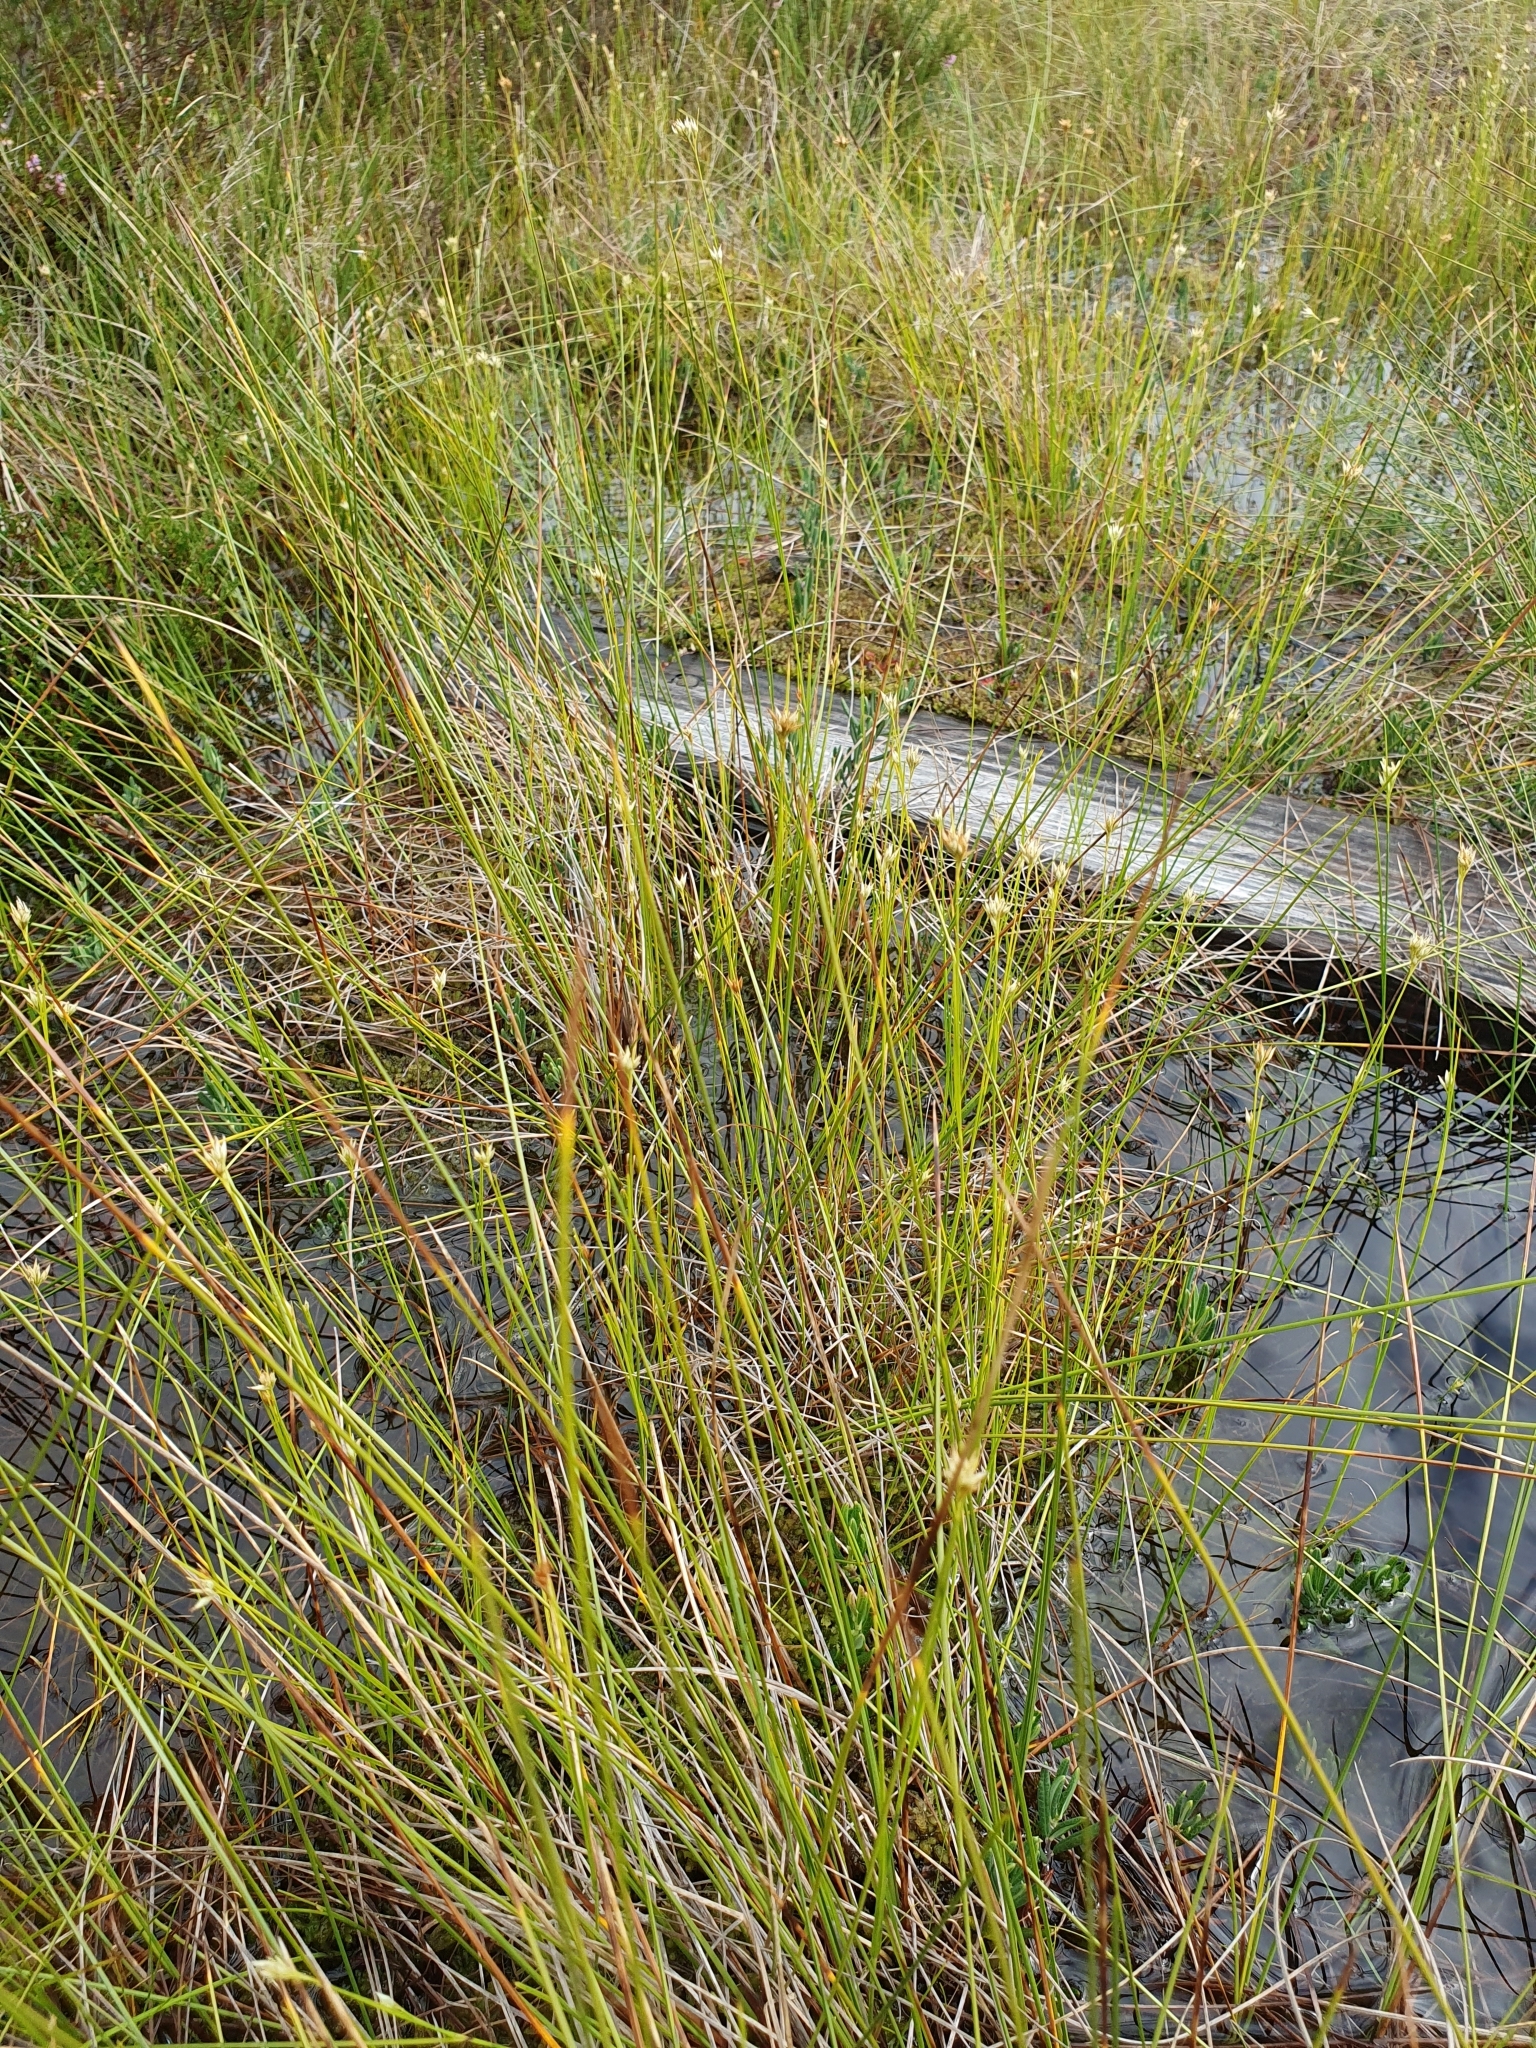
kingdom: Plantae
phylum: Tracheophyta
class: Liliopsida
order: Poales
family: Cyperaceae
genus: Rhynchospora
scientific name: Rhynchospora alba
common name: White beak-sedge
